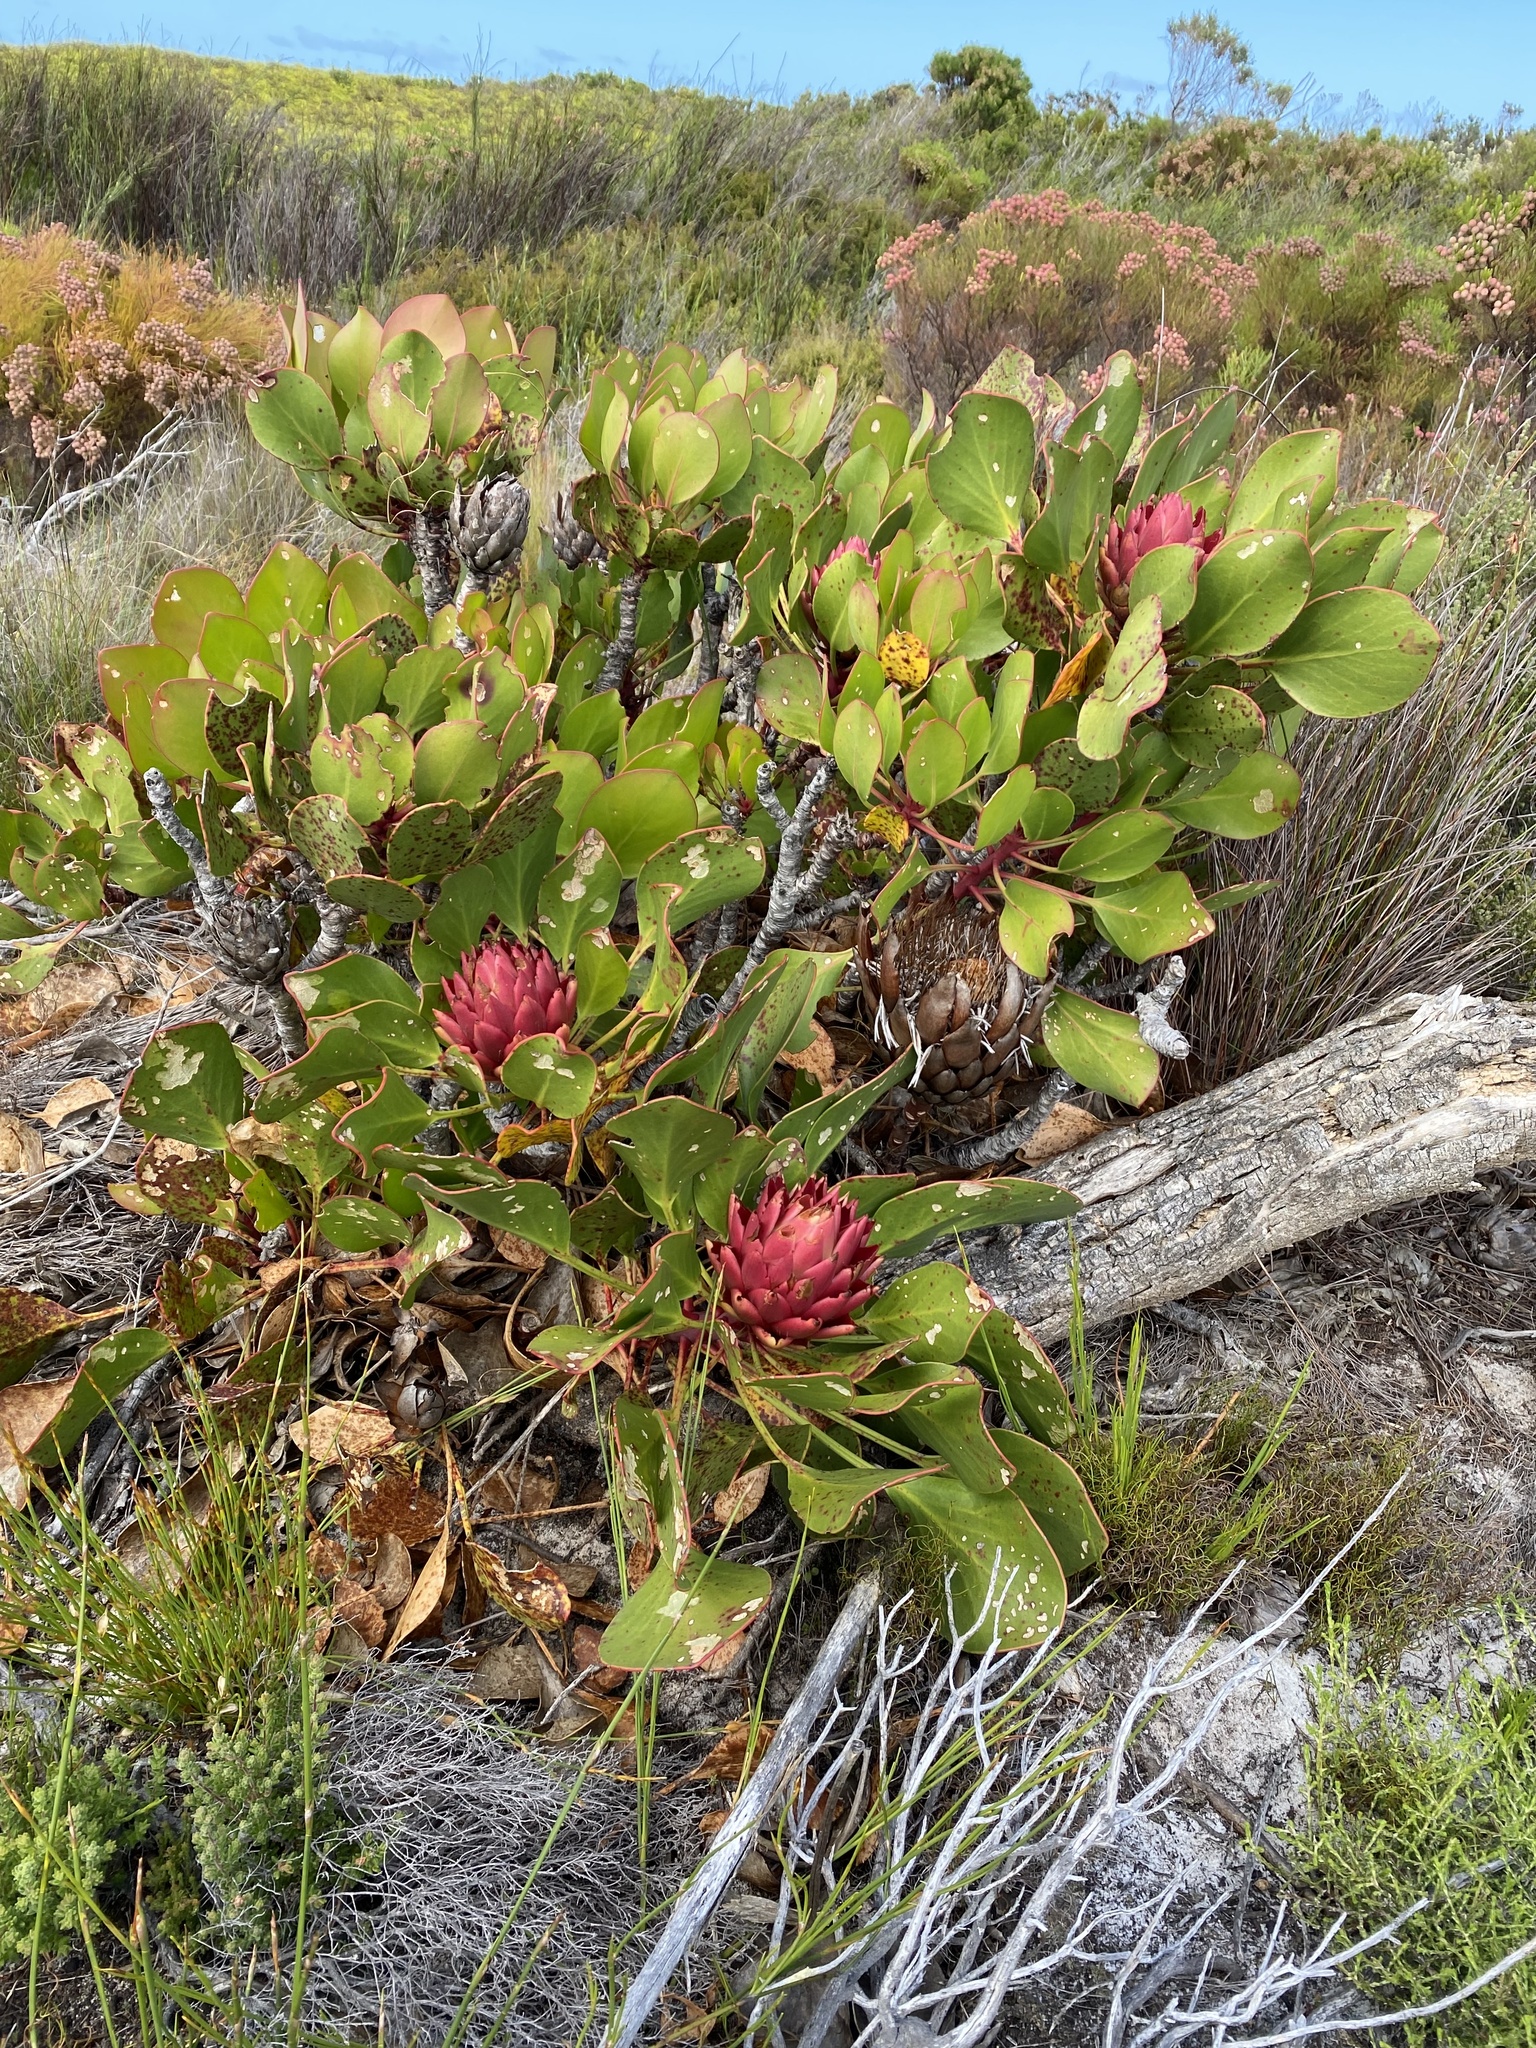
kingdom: Plantae
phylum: Tracheophyta
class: Magnoliopsida
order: Proteales
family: Proteaceae
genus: Protea
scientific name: Protea cynaroides
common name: King protea
